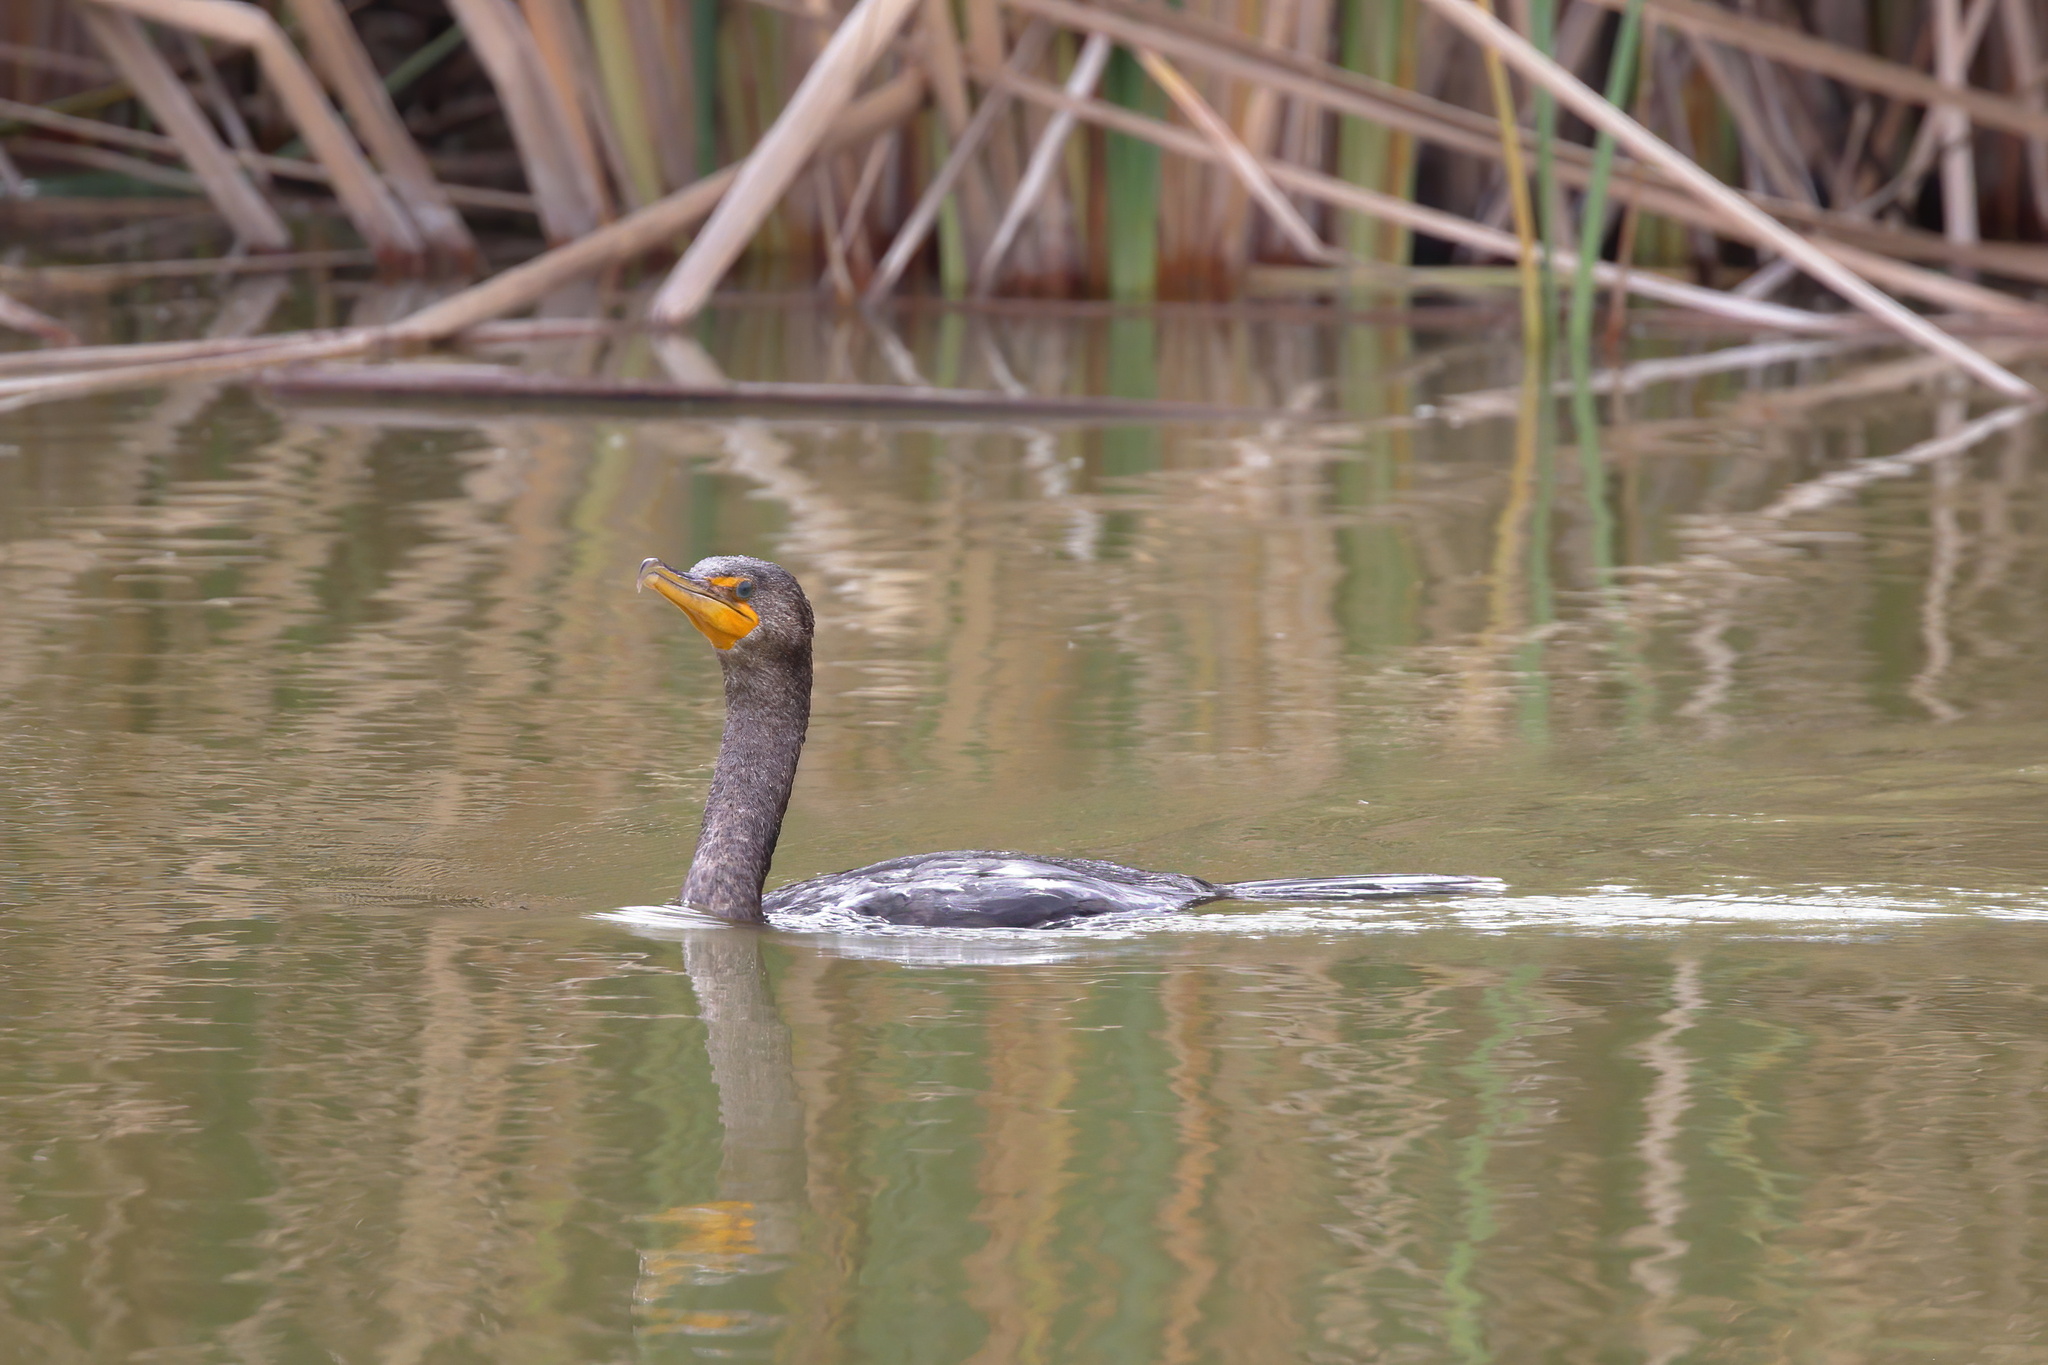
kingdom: Animalia
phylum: Chordata
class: Aves
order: Suliformes
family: Phalacrocoracidae
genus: Phalacrocorax
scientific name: Phalacrocorax auritus
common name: Double-crested cormorant
